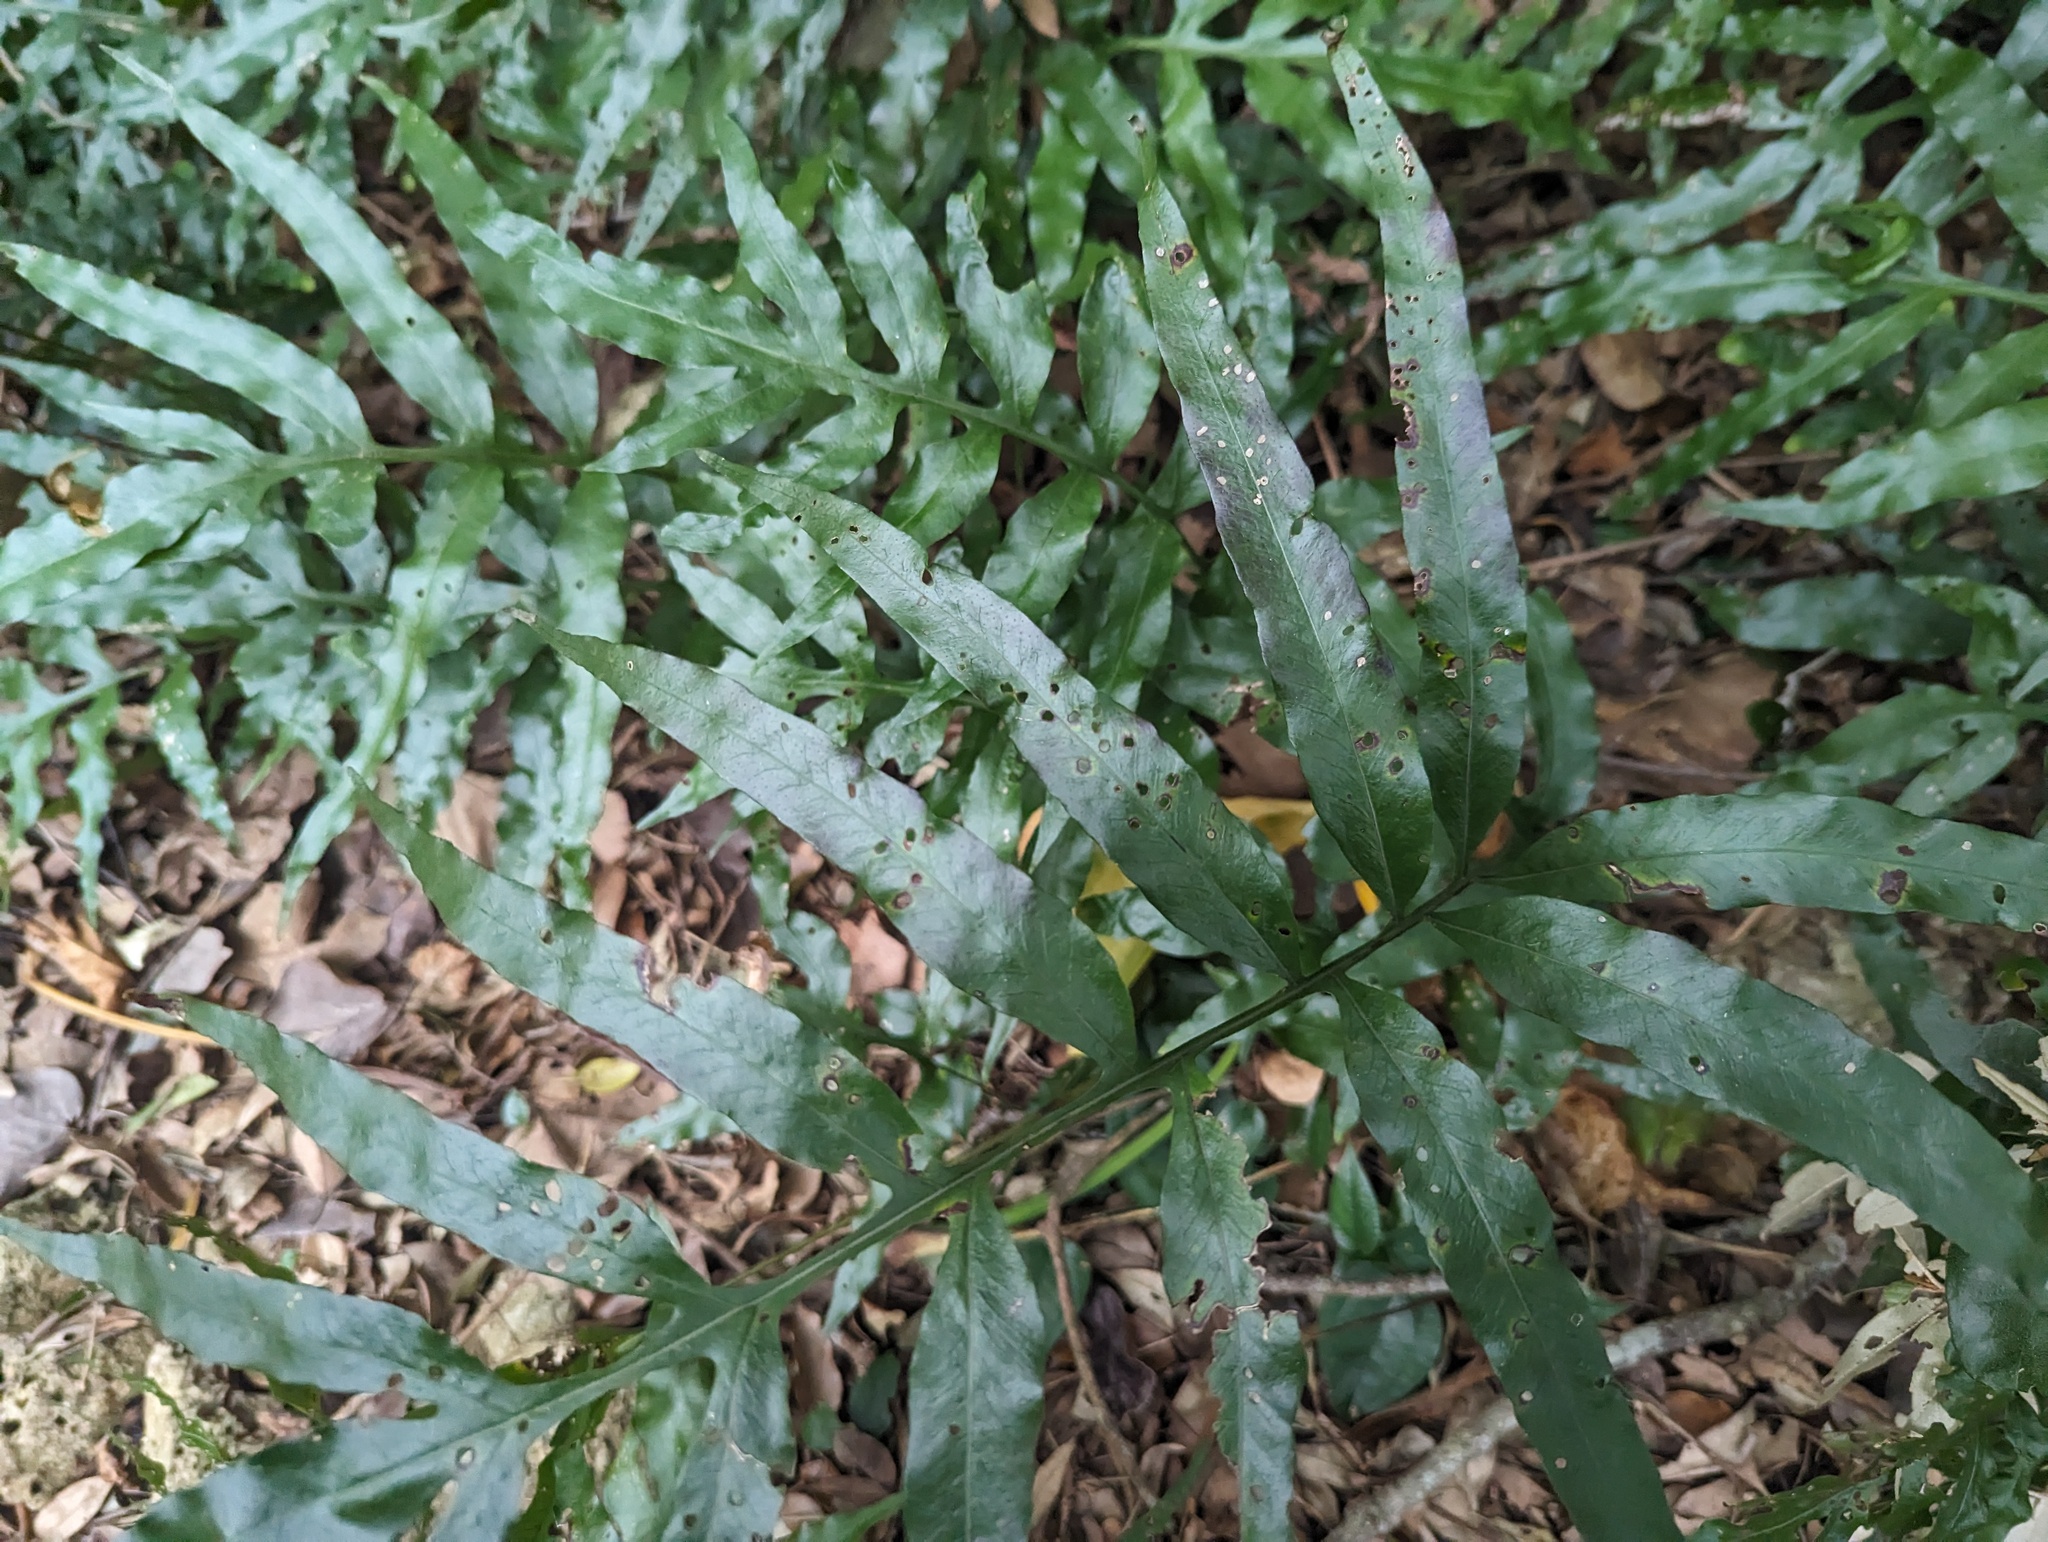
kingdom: Plantae
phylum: Tracheophyta
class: Polypodiopsida
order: Polypodiales
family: Polypodiaceae
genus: Leptochilus
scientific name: Leptochilus ellipticus
